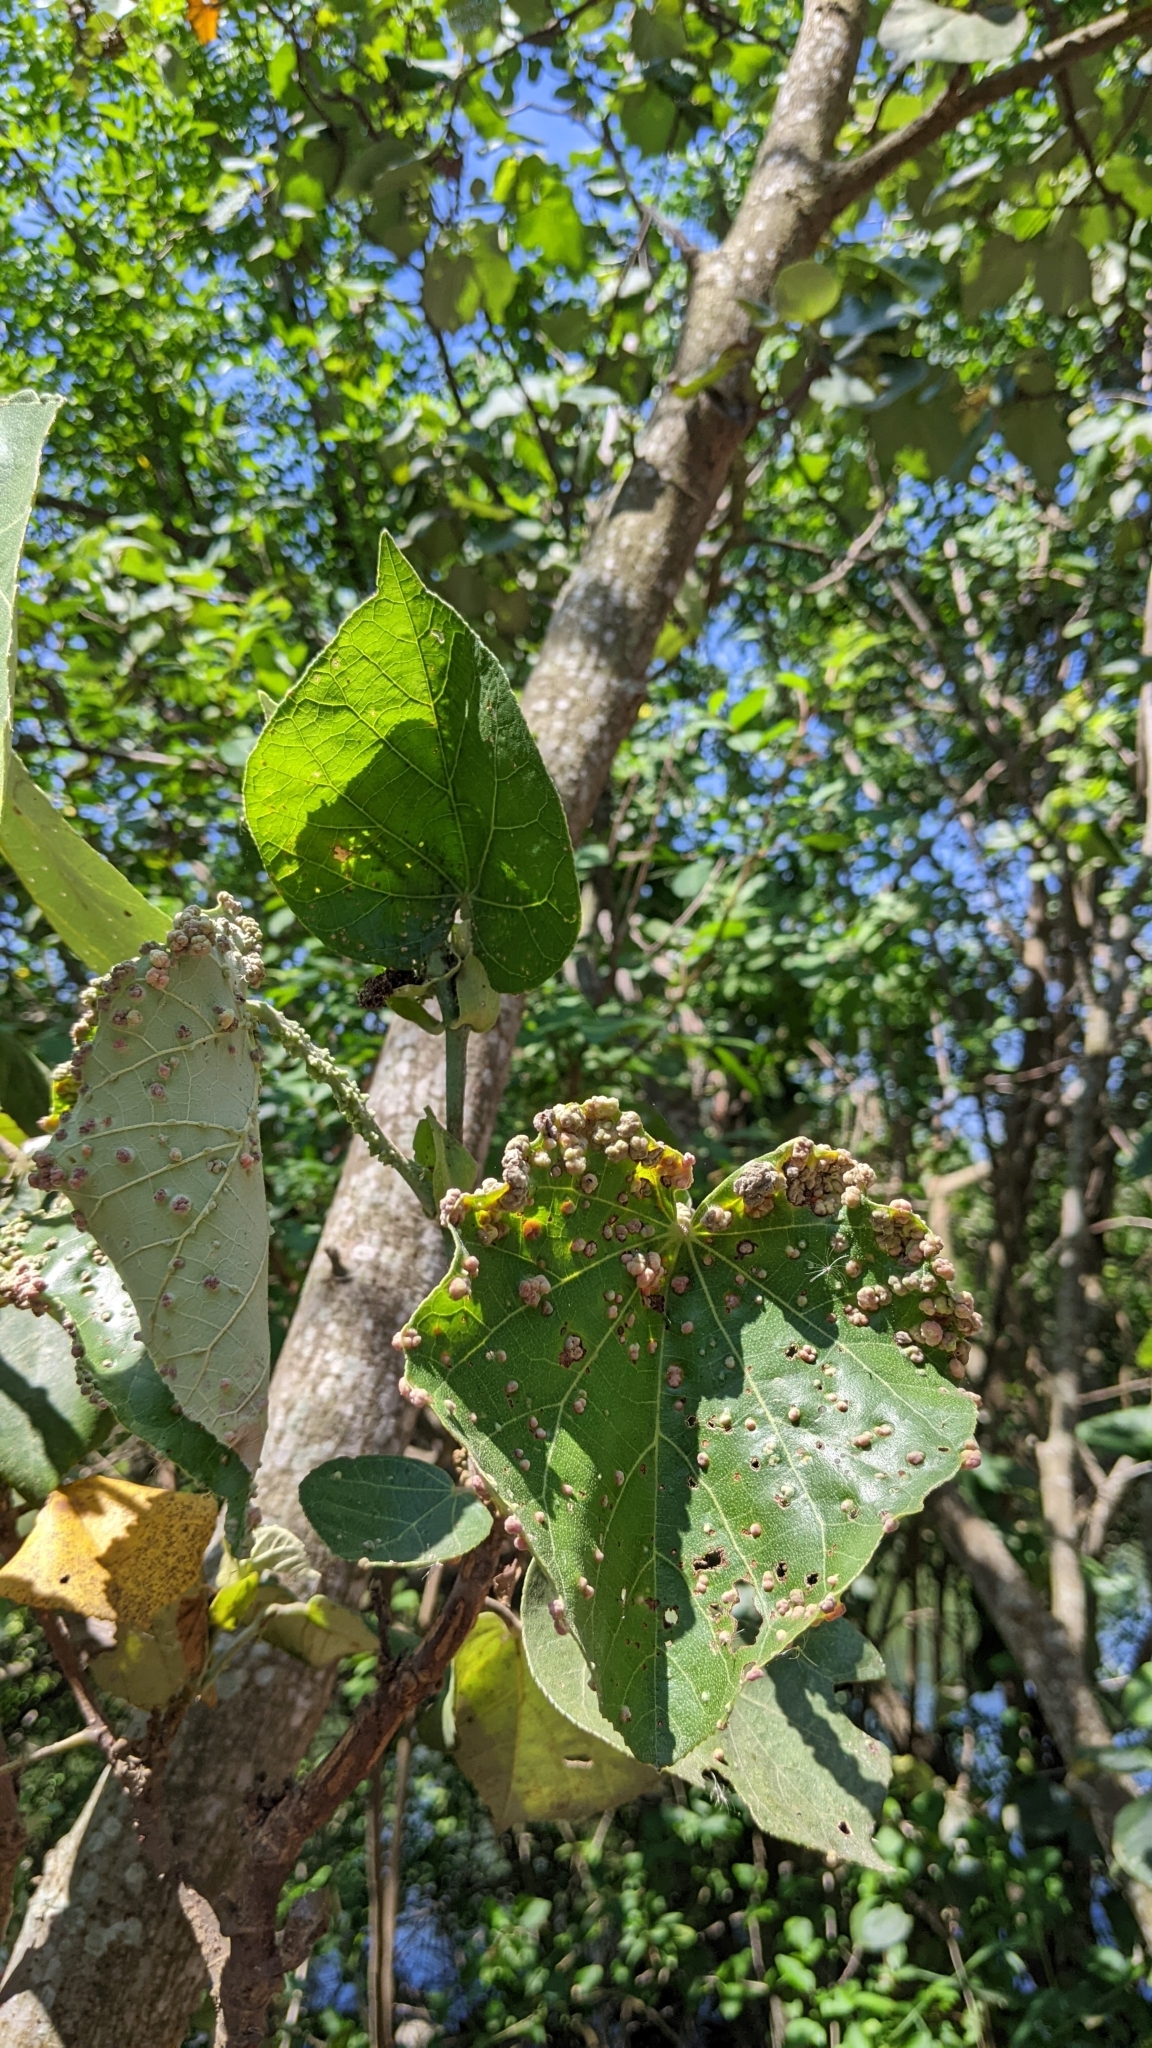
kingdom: Plantae
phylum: Tracheophyta
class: Magnoliopsida
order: Malvales
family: Malvaceae
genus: Talipariti
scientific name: Talipariti tiliaceum
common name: Sea hibiscus
